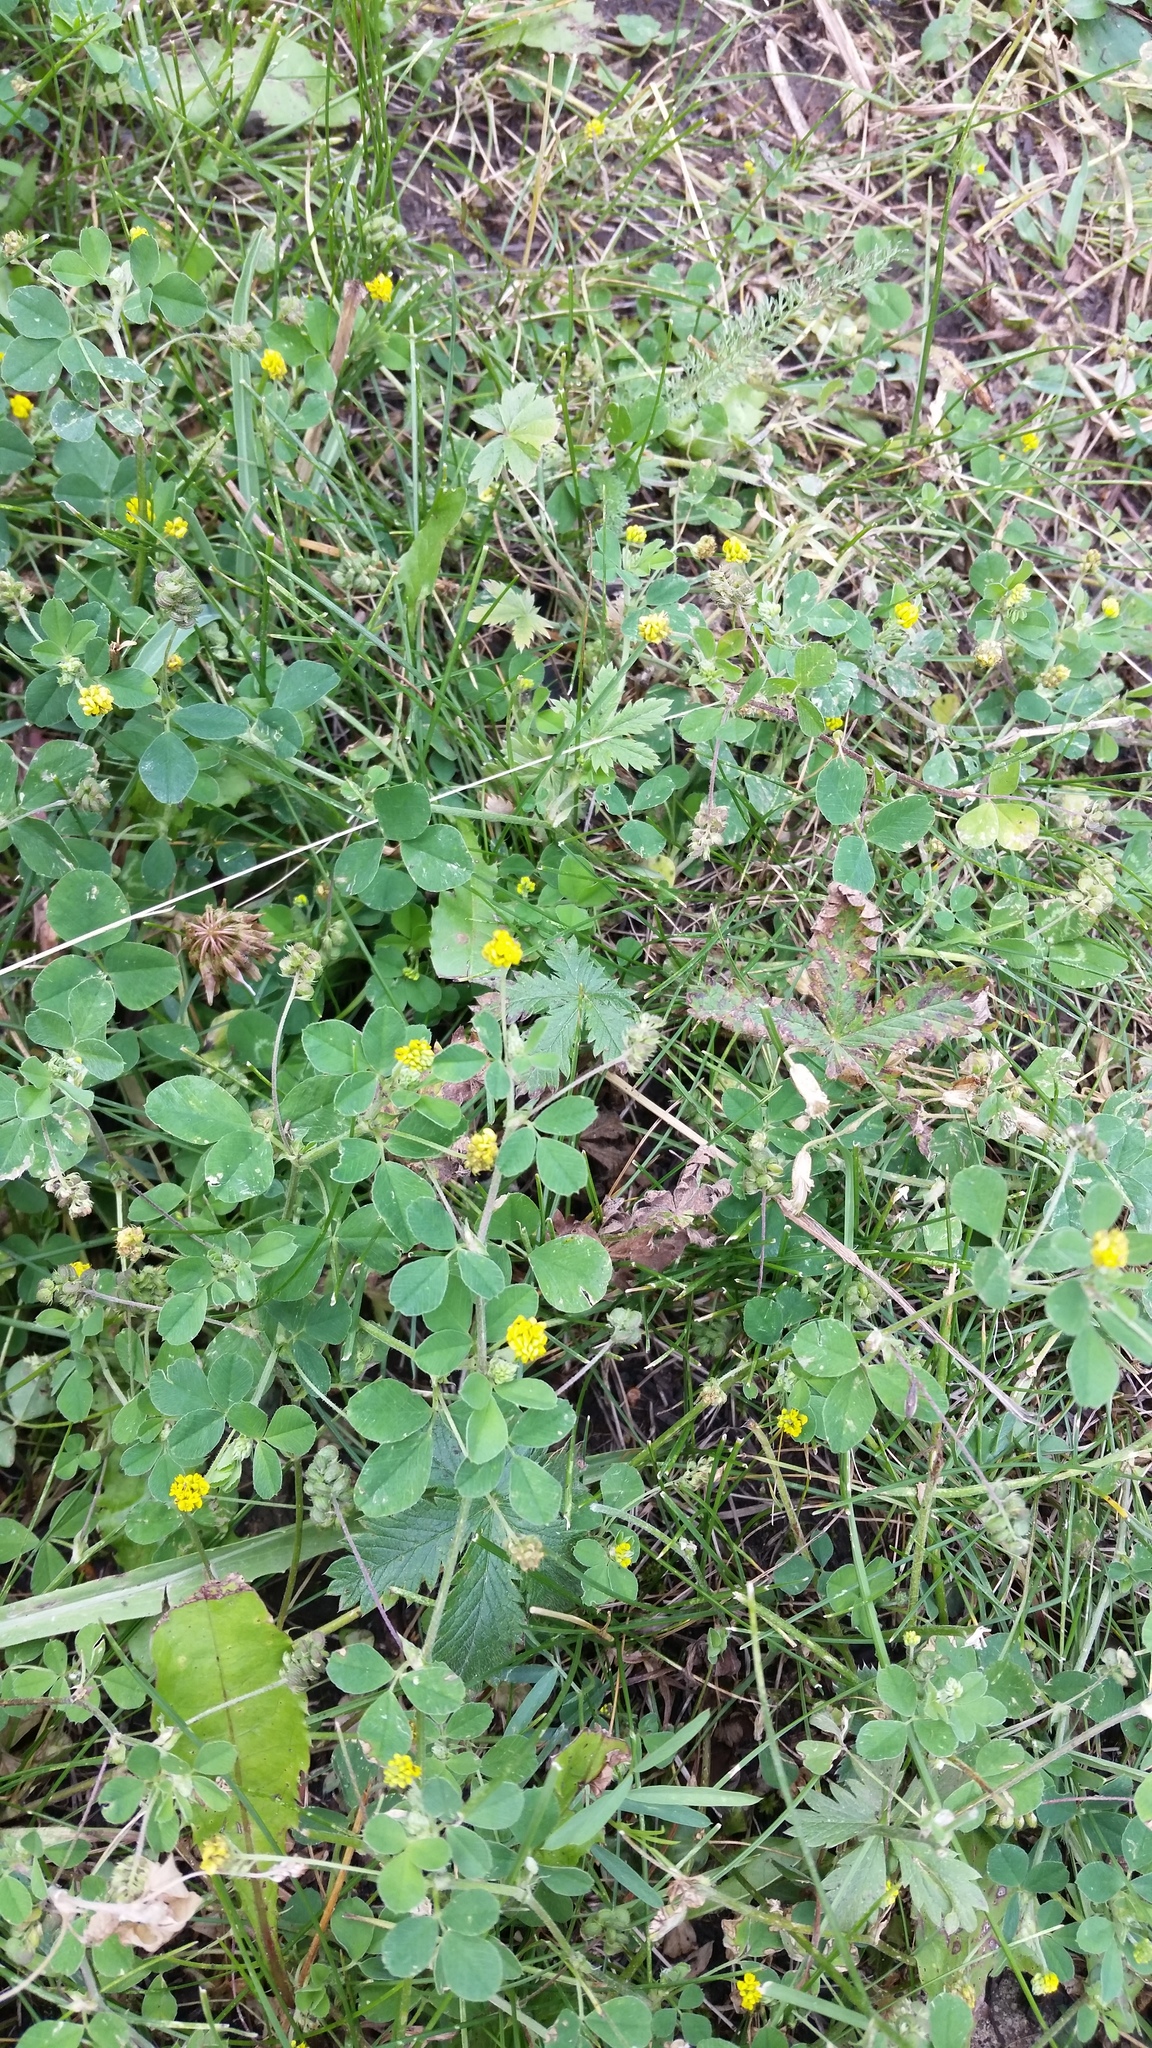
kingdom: Plantae
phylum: Tracheophyta
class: Magnoliopsida
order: Fabales
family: Fabaceae
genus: Medicago
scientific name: Medicago lupulina
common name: Black medick
